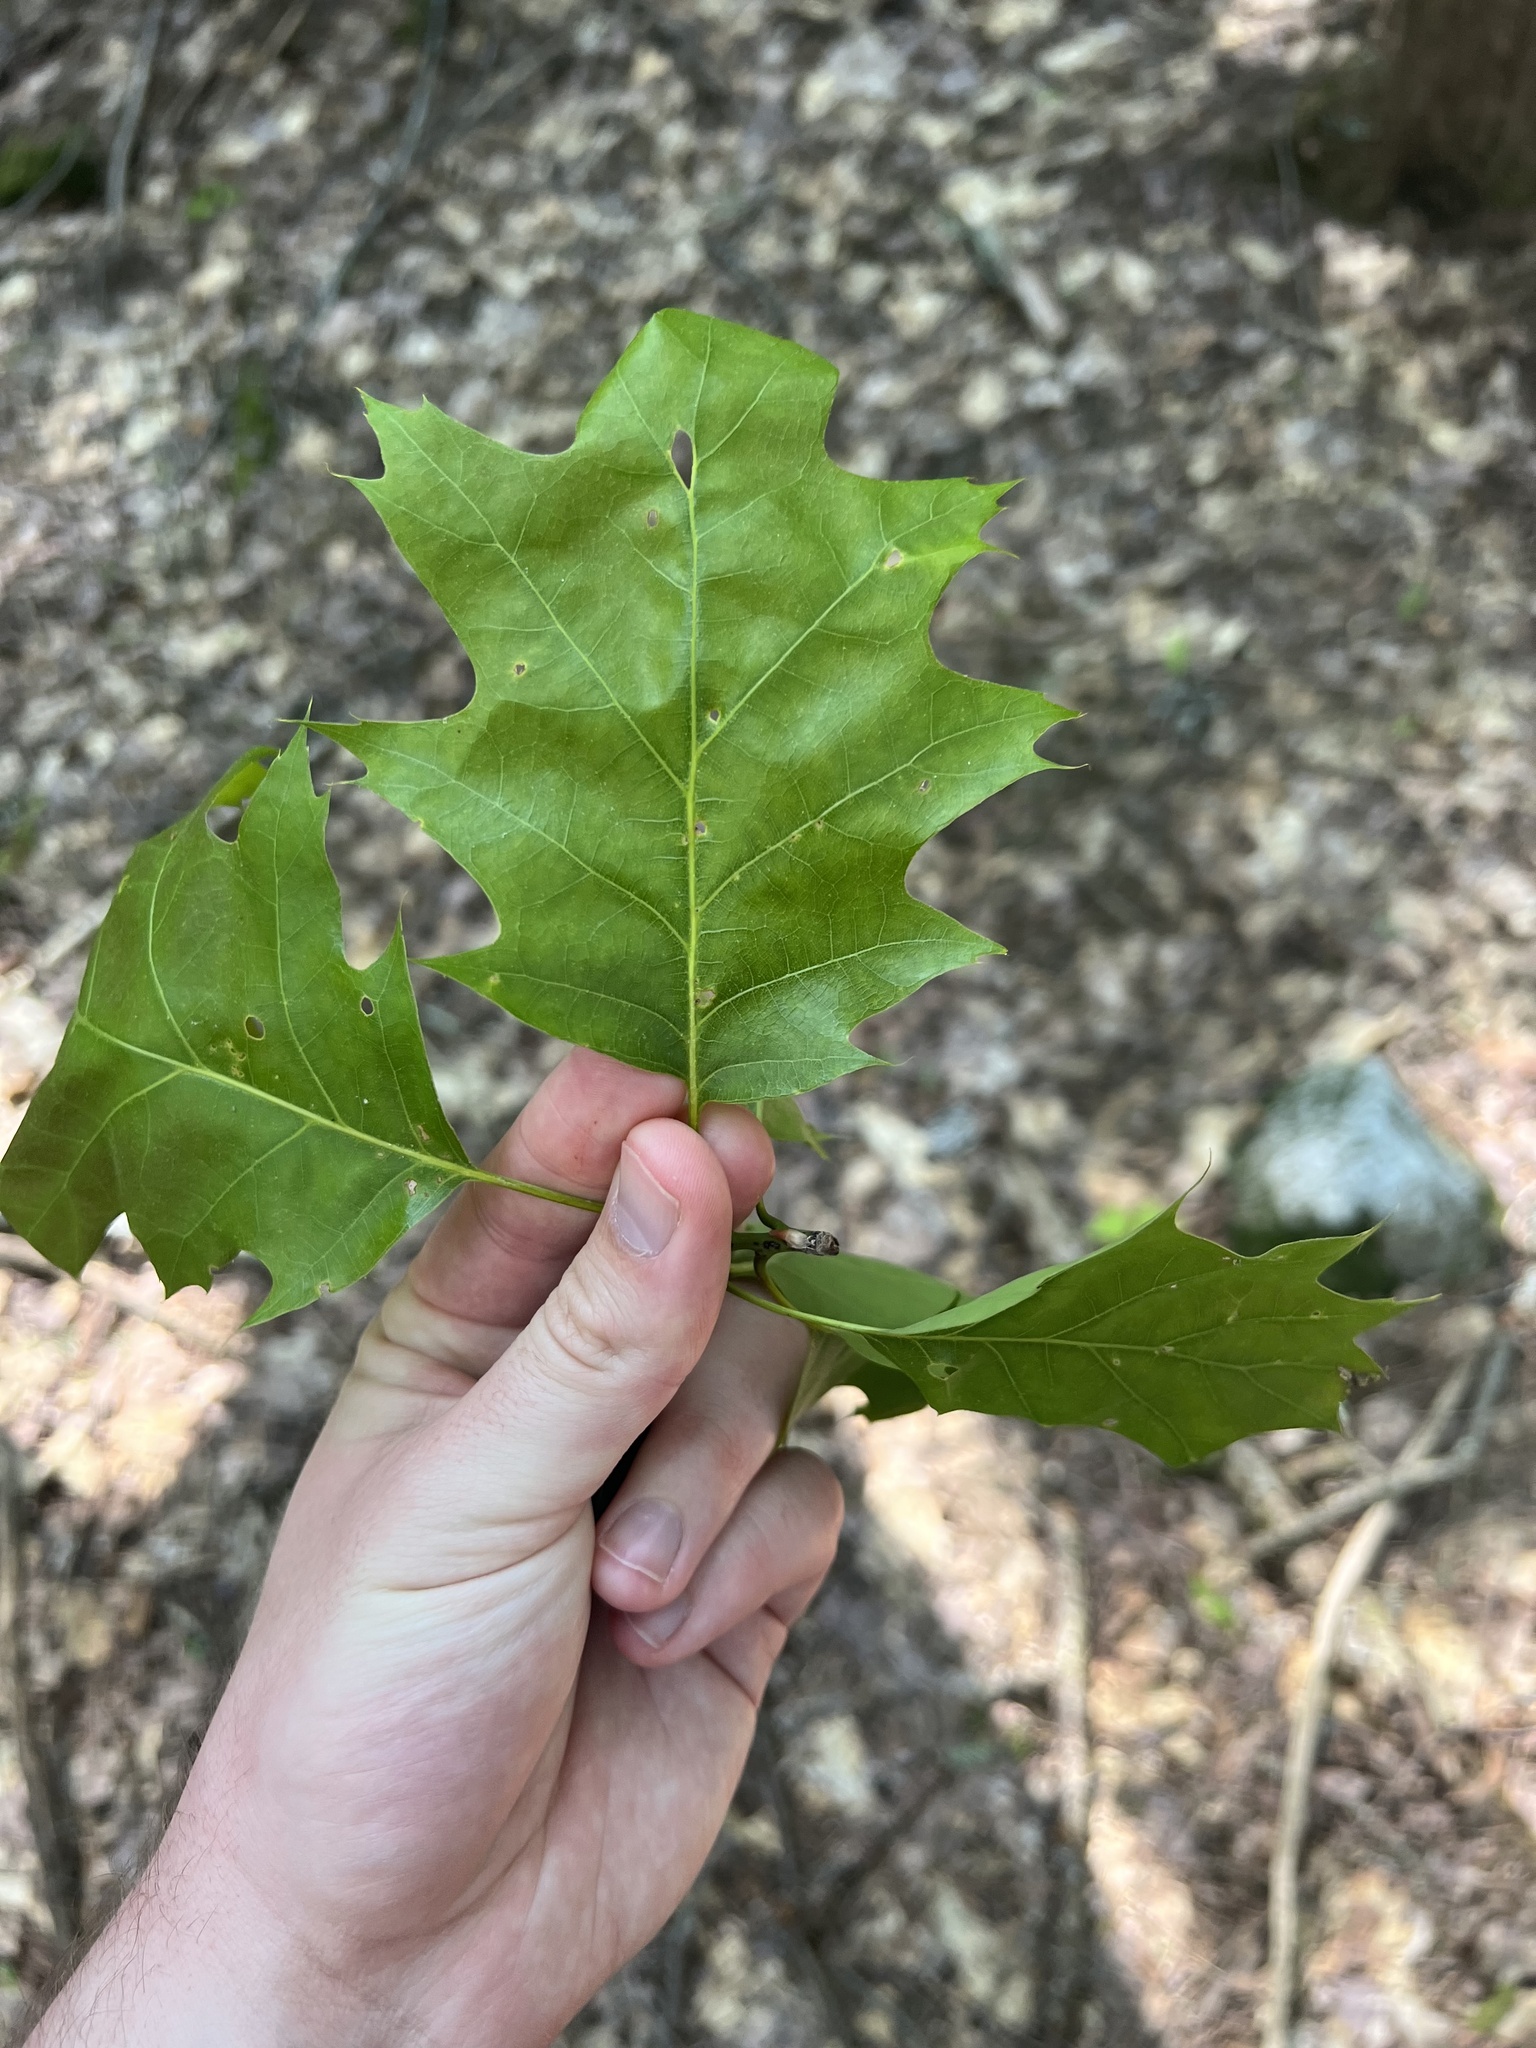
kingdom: Plantae
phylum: Tracheophyta
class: Magnoliopsida
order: Fagales
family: Fagaceae
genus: Quercus
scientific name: Quercus rubra
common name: Red oak
